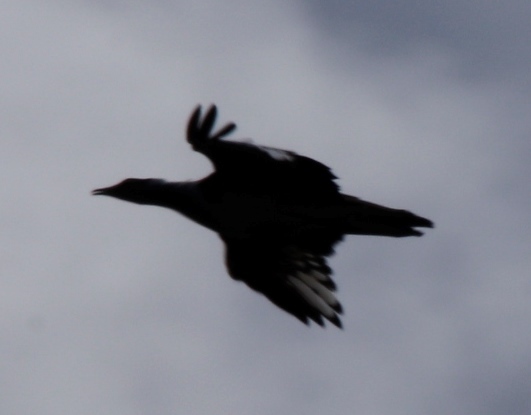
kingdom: Animalia
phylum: Chordata
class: Aves
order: Otidiformes
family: Otididae
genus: Neotis
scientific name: Neotis denhami
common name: Denham's bustard
